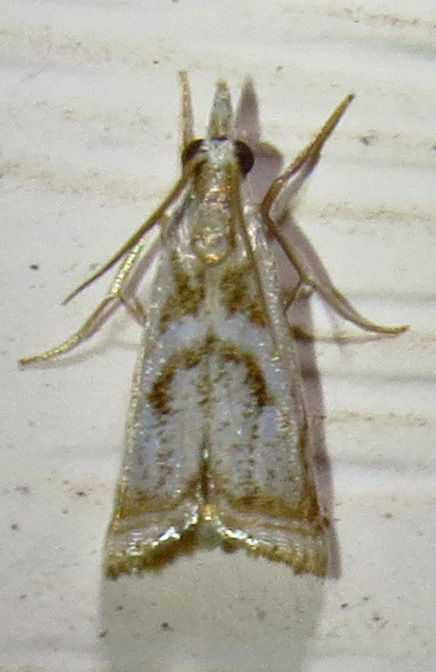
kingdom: Animalia
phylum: Arthropoda
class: Insecta
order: Lepidoptera
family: Crambidae
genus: Microcrambus
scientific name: Microcrambus elegans
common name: Elegant grass-veneer
